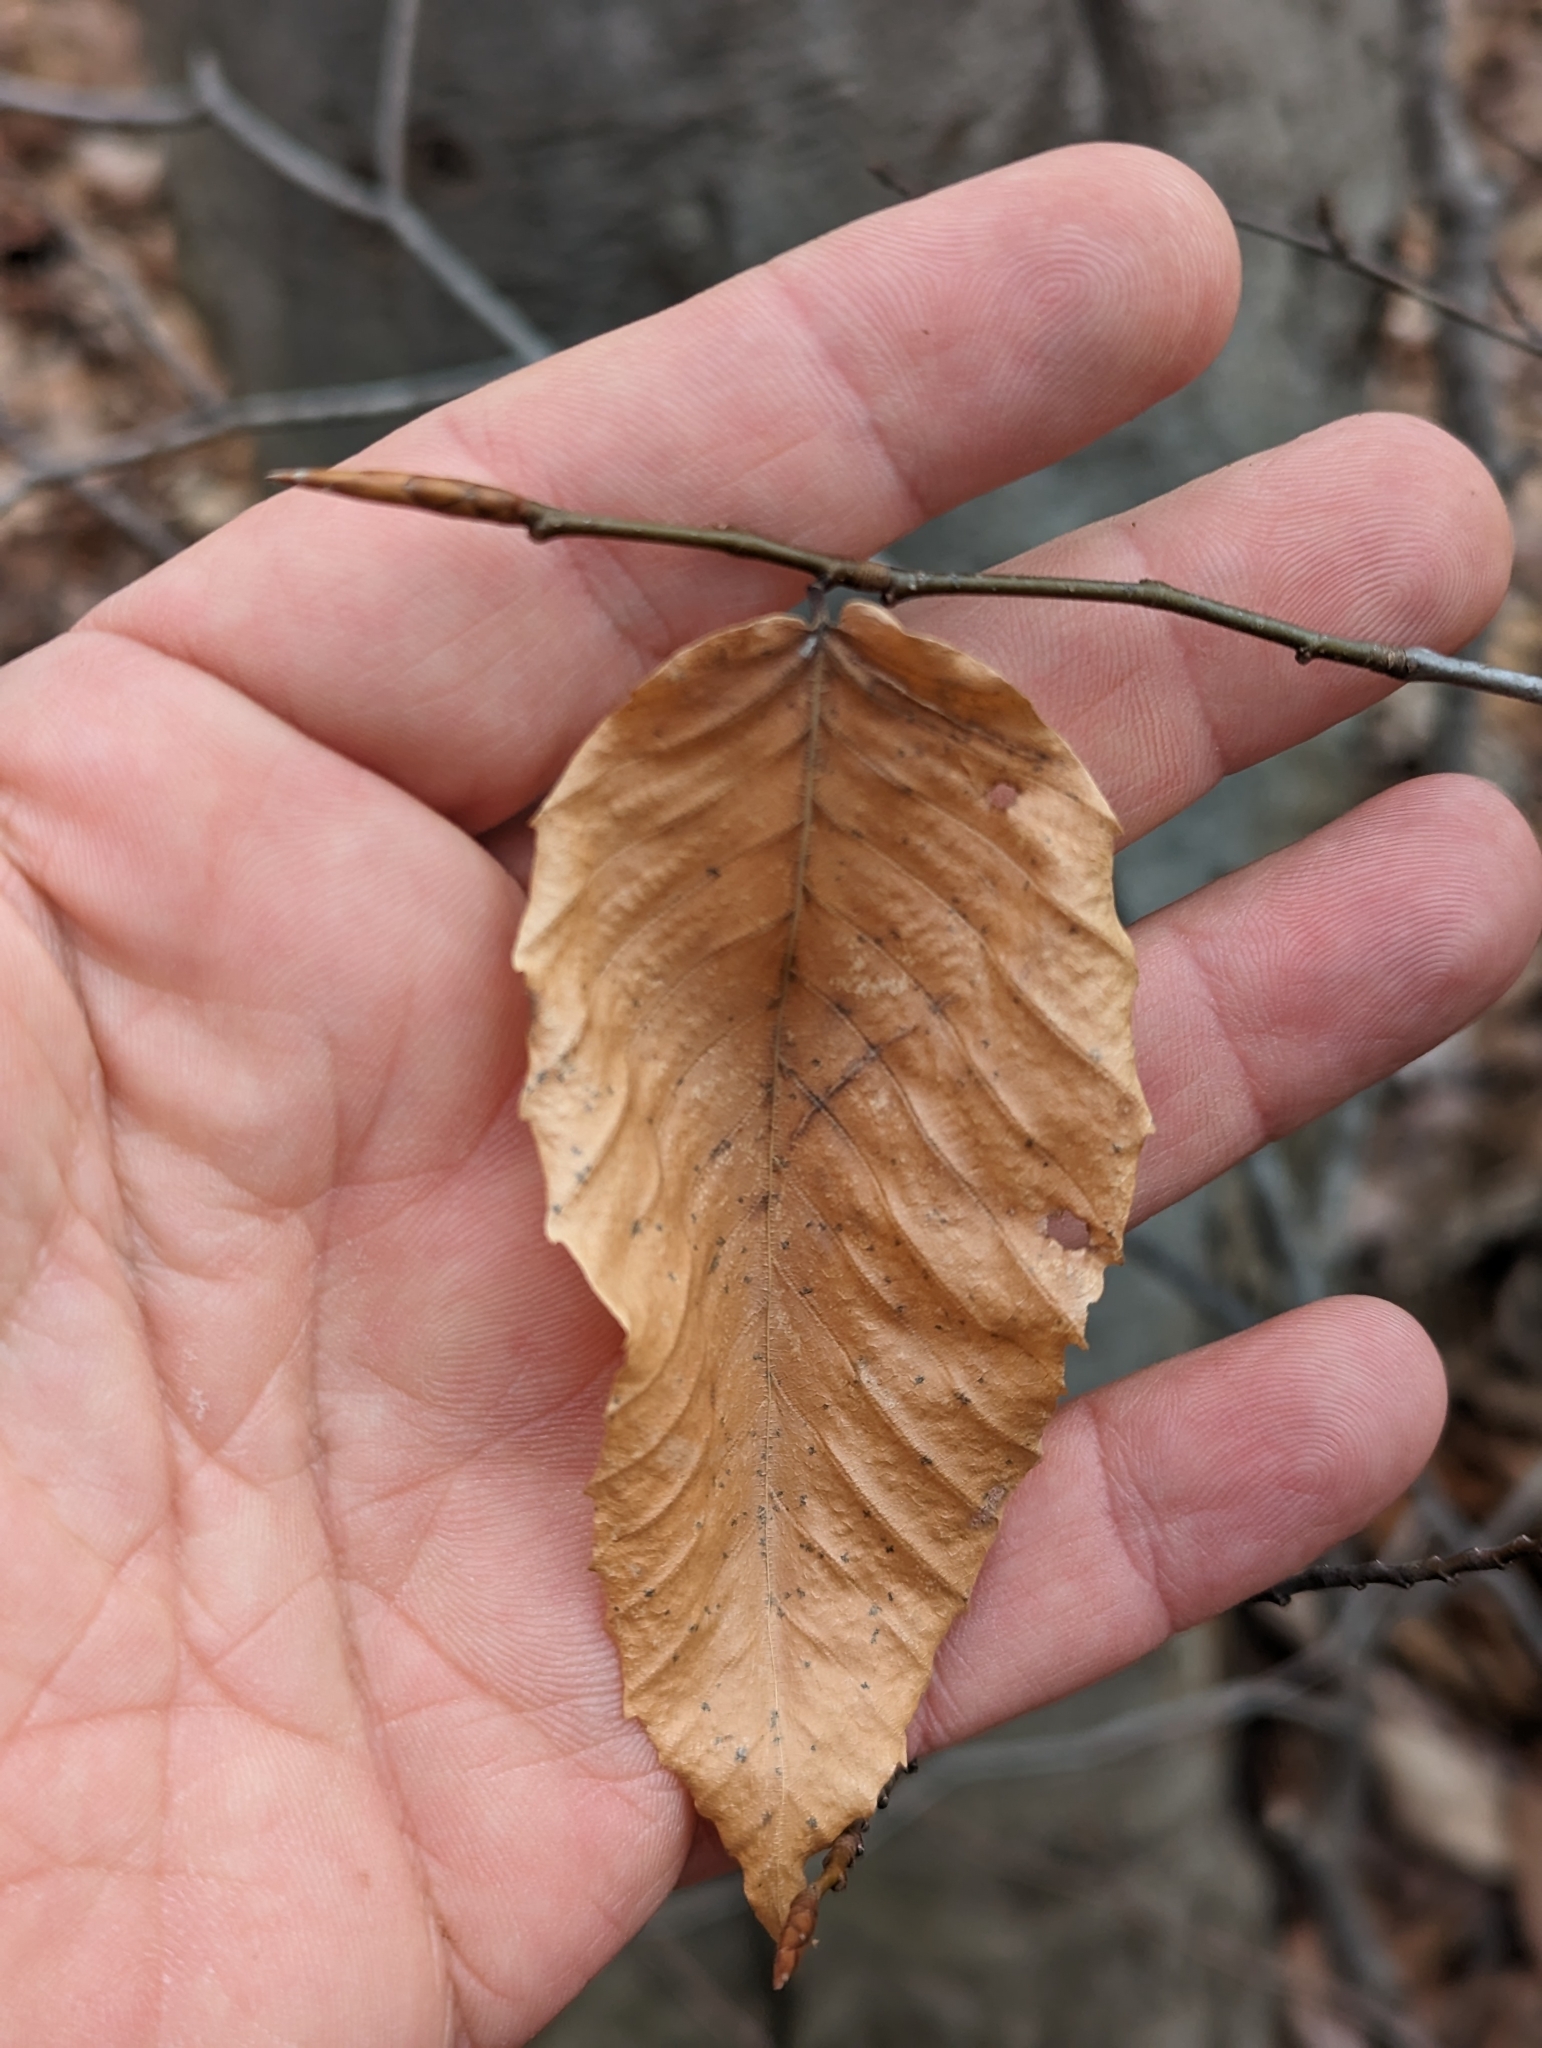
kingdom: Plantae
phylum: Tracheophyta
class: Magnoliopsida
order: Fagales
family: Fagaceae
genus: Fagus
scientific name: Fagus grandifolia
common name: American beech
